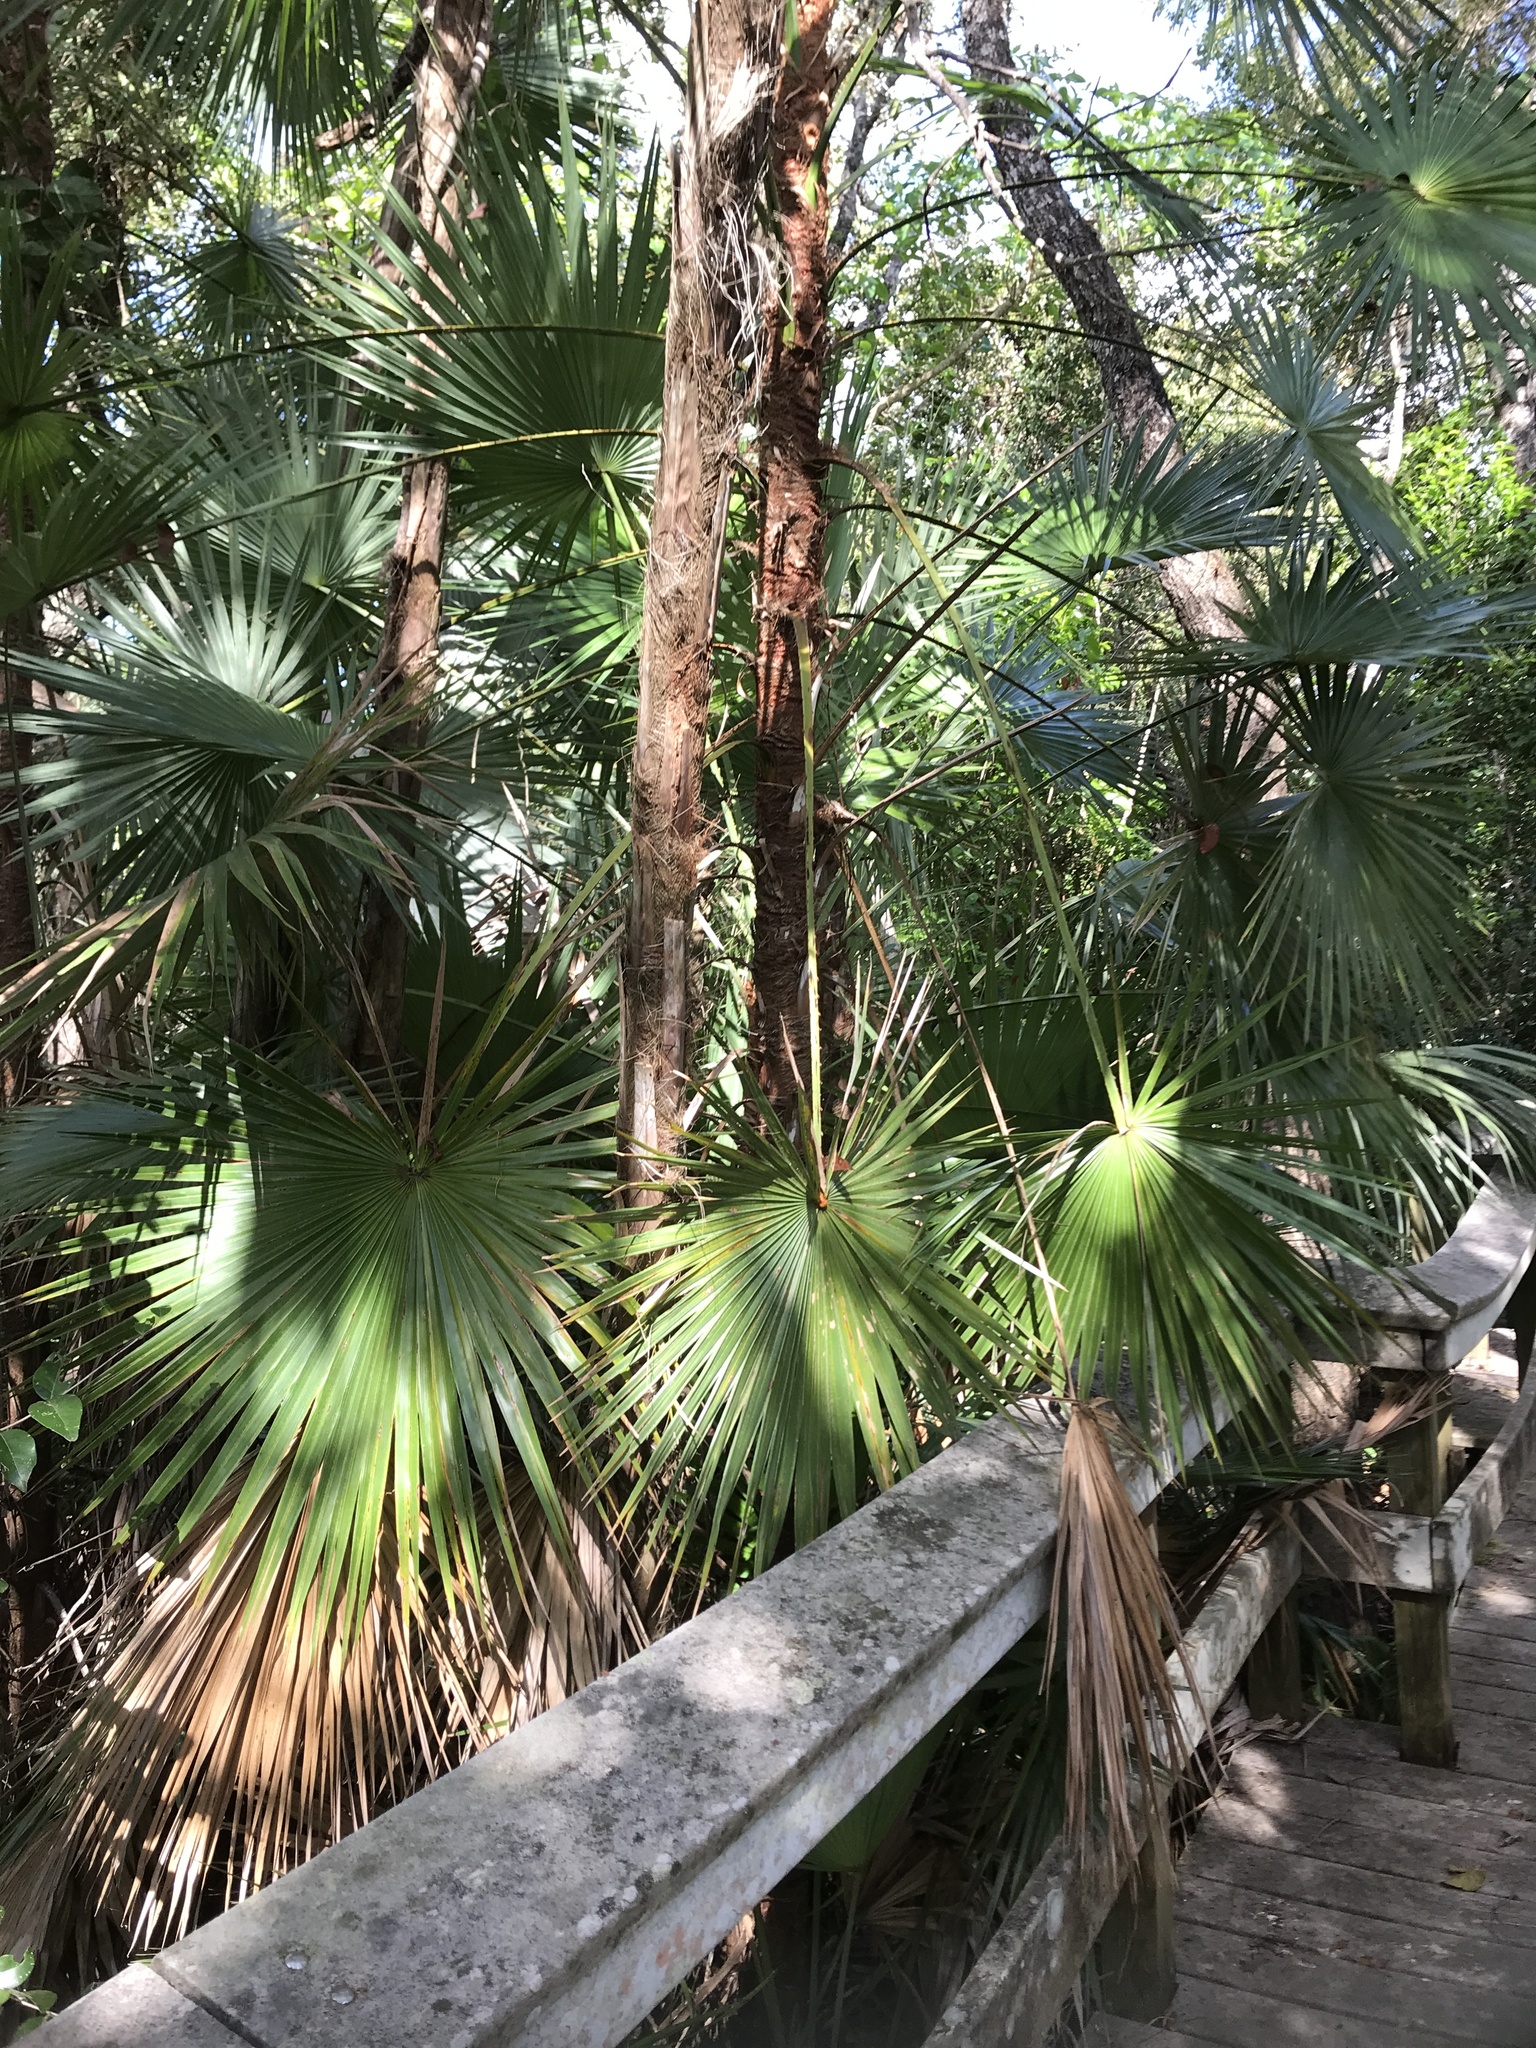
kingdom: Plantae
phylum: Tracheophyta
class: Liliopsida
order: Arecales
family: Arecaceae
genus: Acoelorraphe
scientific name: Acoelorraphe wrightii
